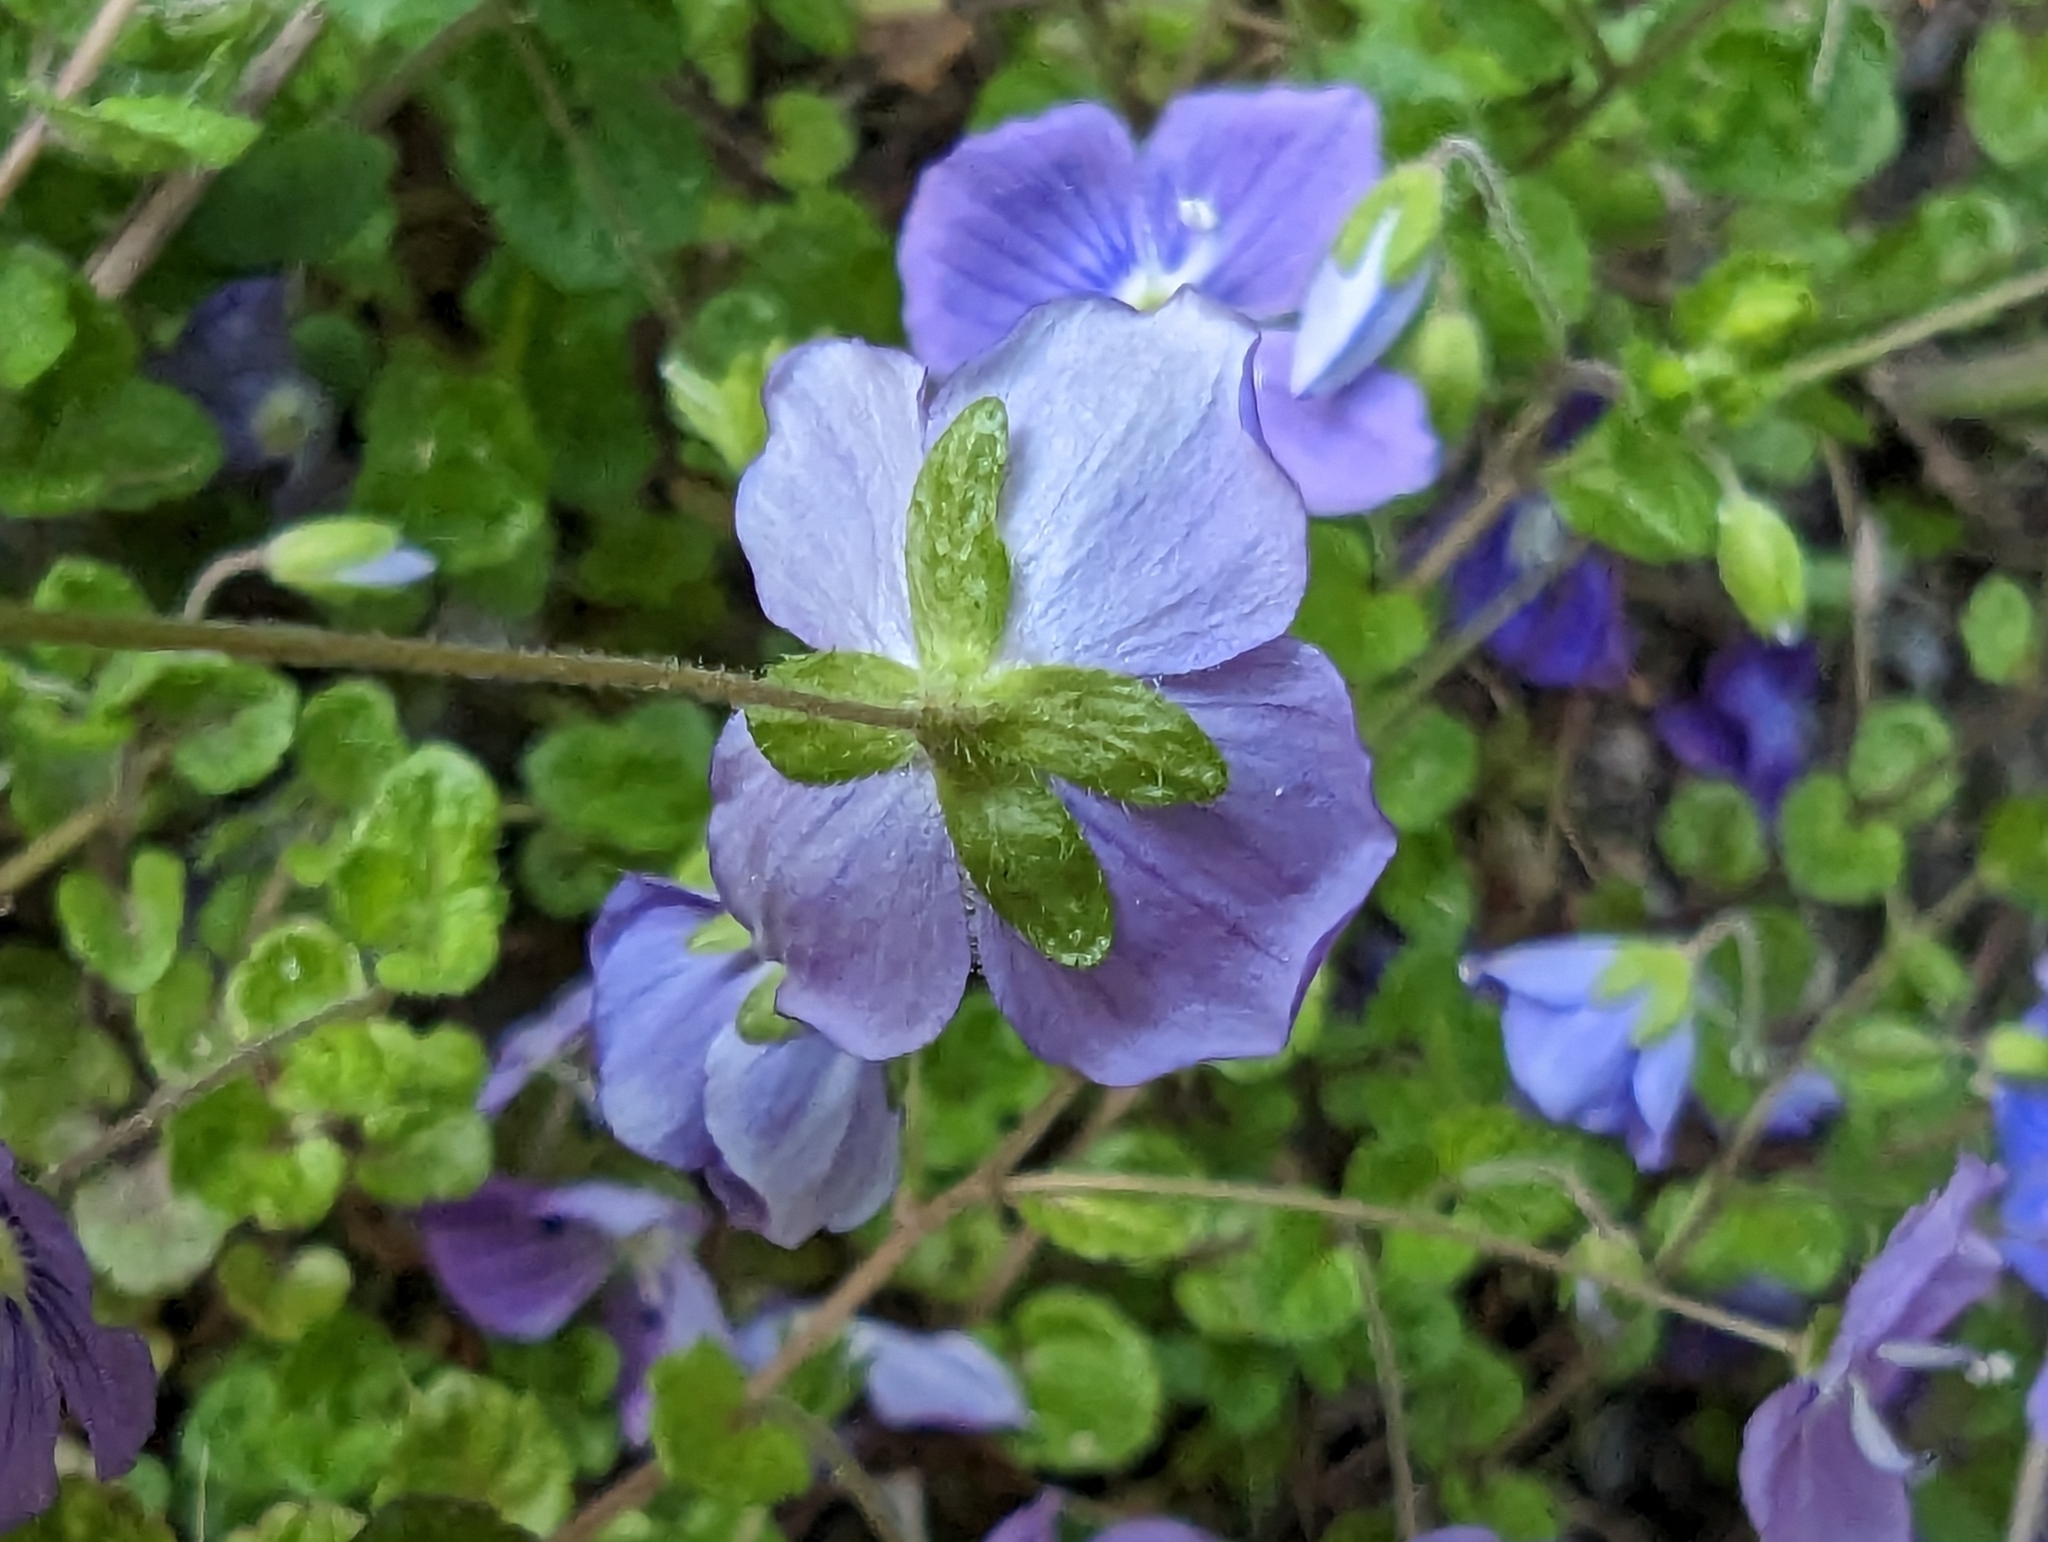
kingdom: Plantae
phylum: Tracheophyta
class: Magnoliopsida
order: Lamiales
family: Plantaginaceae
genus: Veronica
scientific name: Veronica filiformis
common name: Slender speedwell
